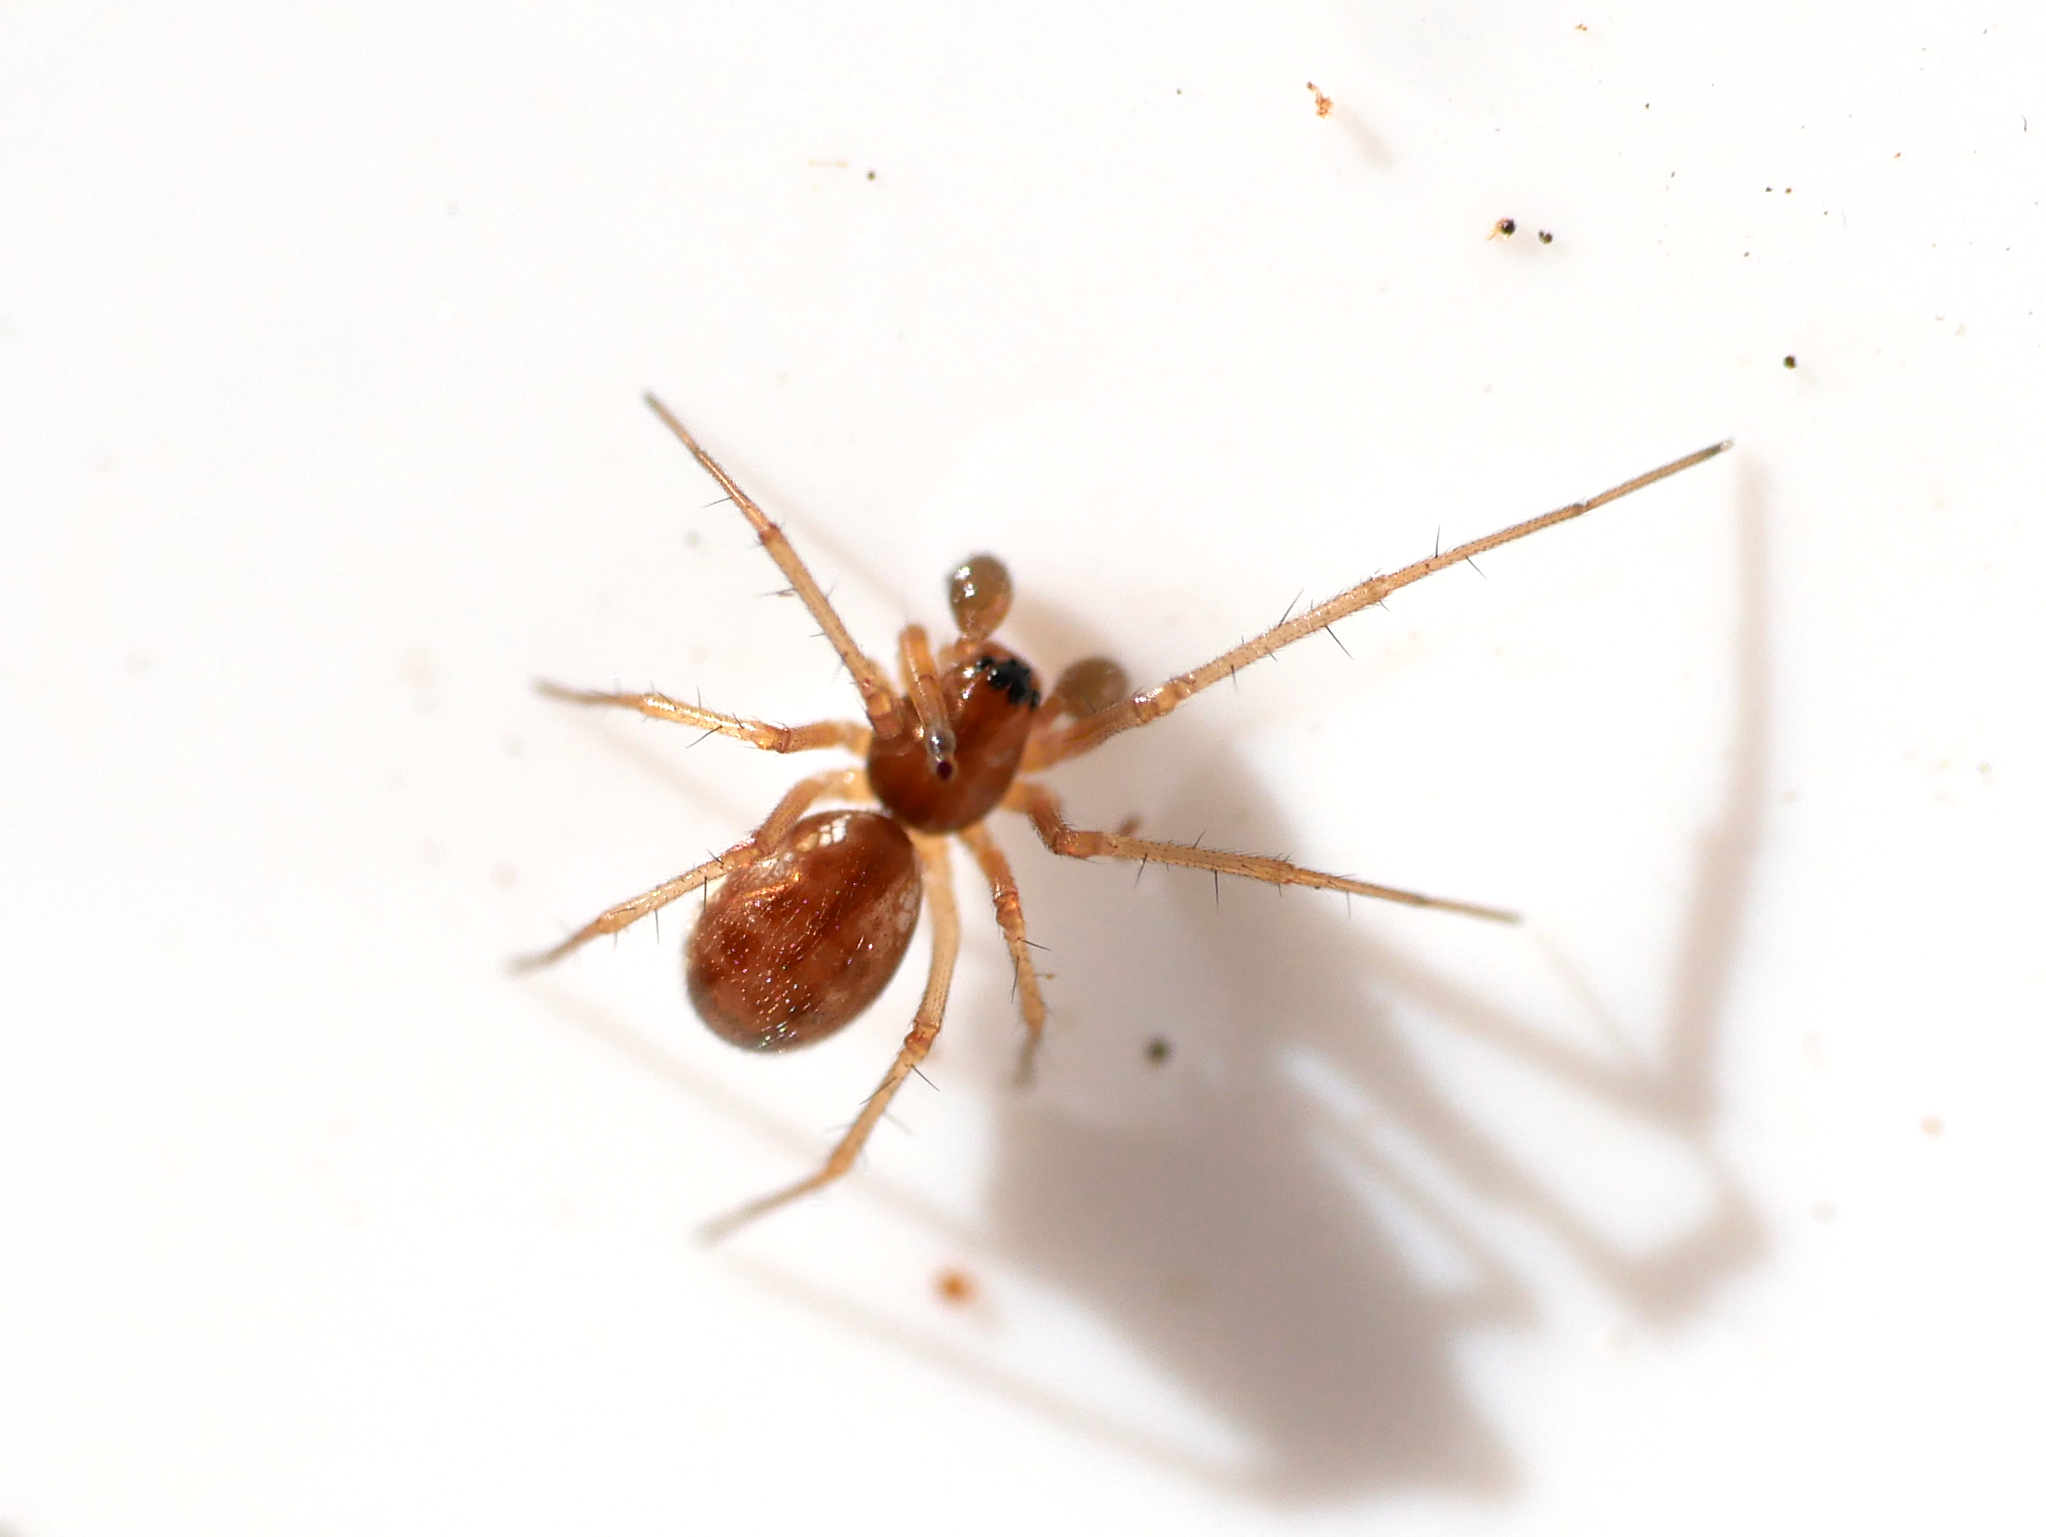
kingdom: Animalia
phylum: Arthropoda
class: Arachnida
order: Araneae
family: Linyphiidae
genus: Microlinyphia
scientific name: Microlinyphia pusilla
